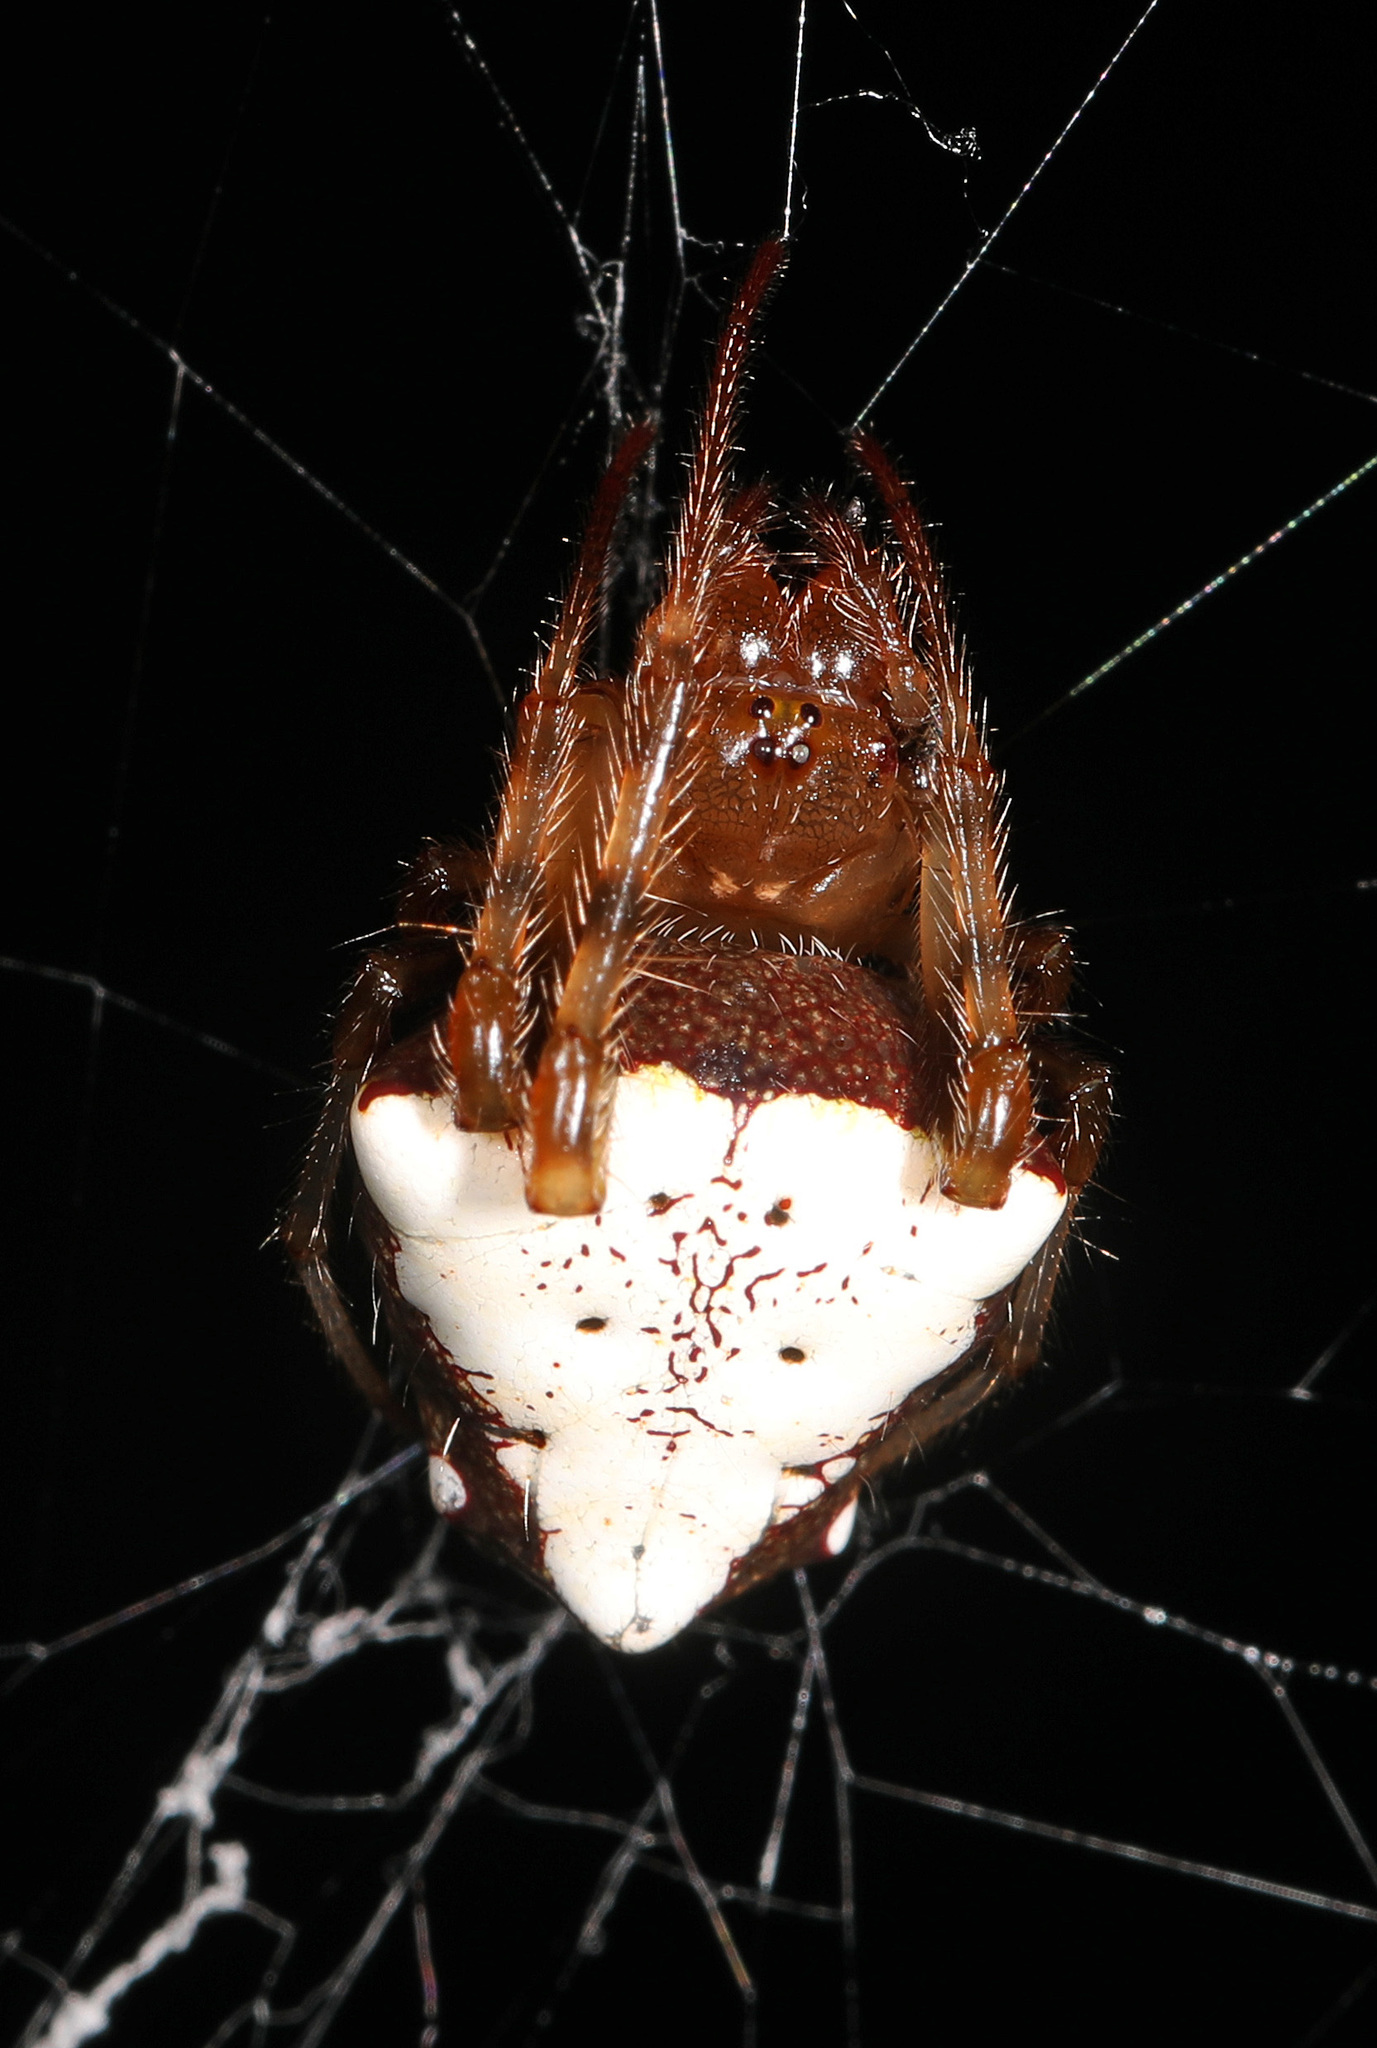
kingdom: Animalia
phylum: Arthropoda
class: Arachnida
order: Araneae
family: Araneidae
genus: Verrucosa
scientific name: Verrucosa arenata
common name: Orb weavers
